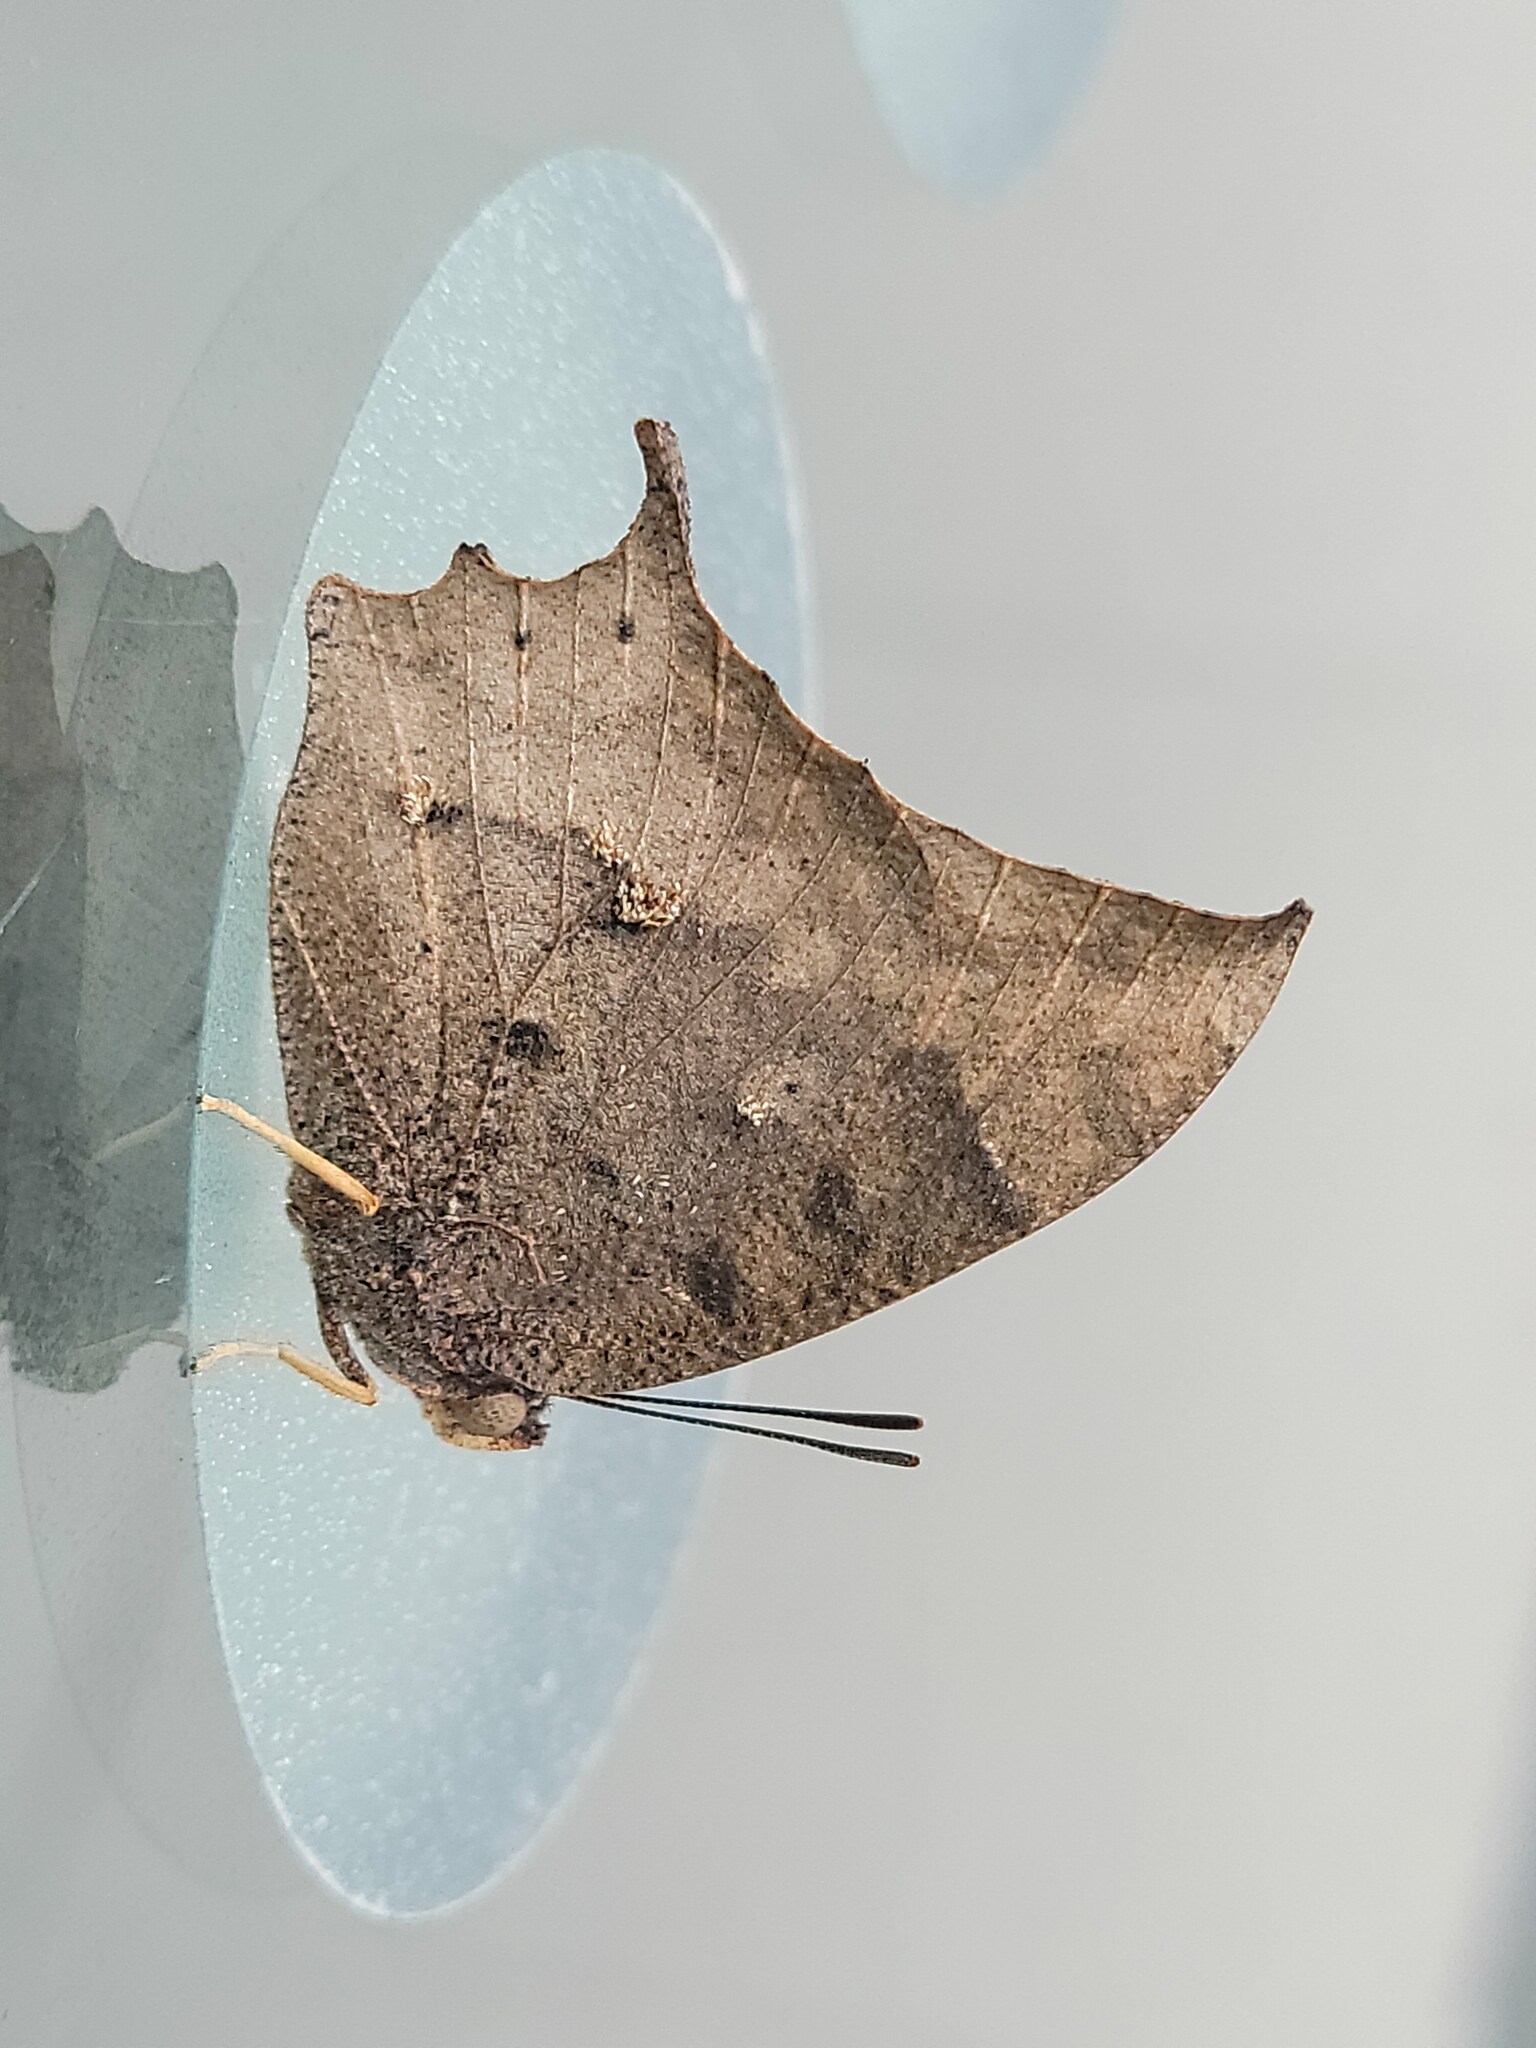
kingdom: Animalia
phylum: Arthropoda
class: Insecta
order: Lepidoptera
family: Nymphalidae
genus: Anaea
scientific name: Anaea aidea
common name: Tropical leafwing
